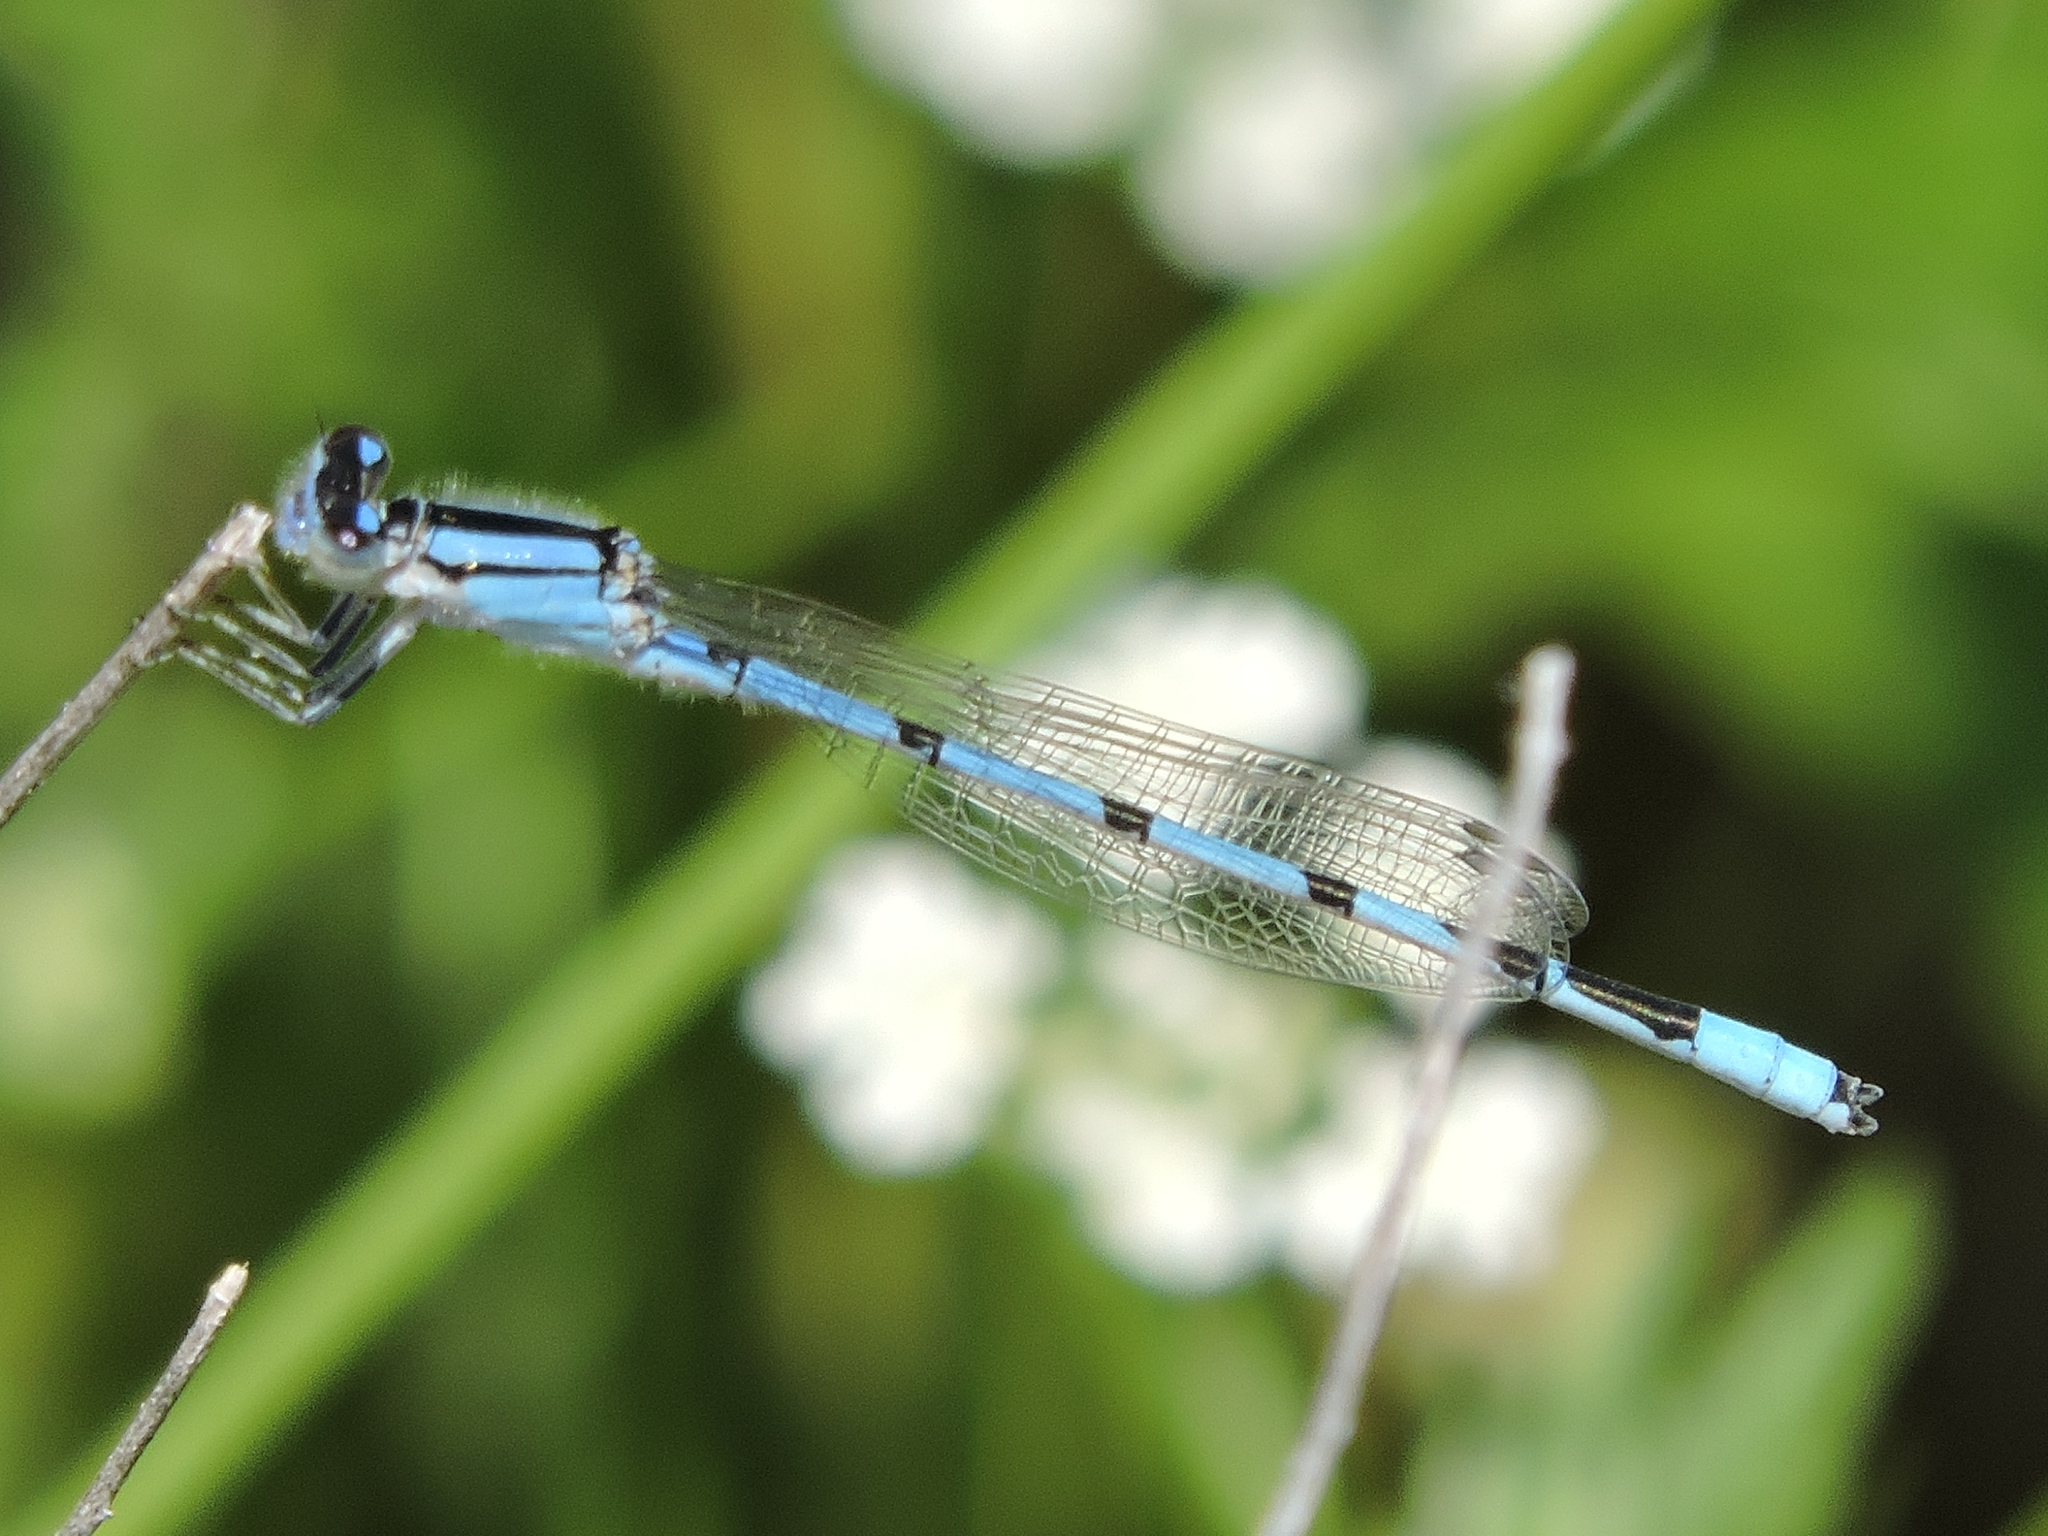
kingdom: Animalia
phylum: Arthropoda
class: Insecta
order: Odonata
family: Coenagrionidae
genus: Enallagma
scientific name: Enallagma civile
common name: Damselfly
